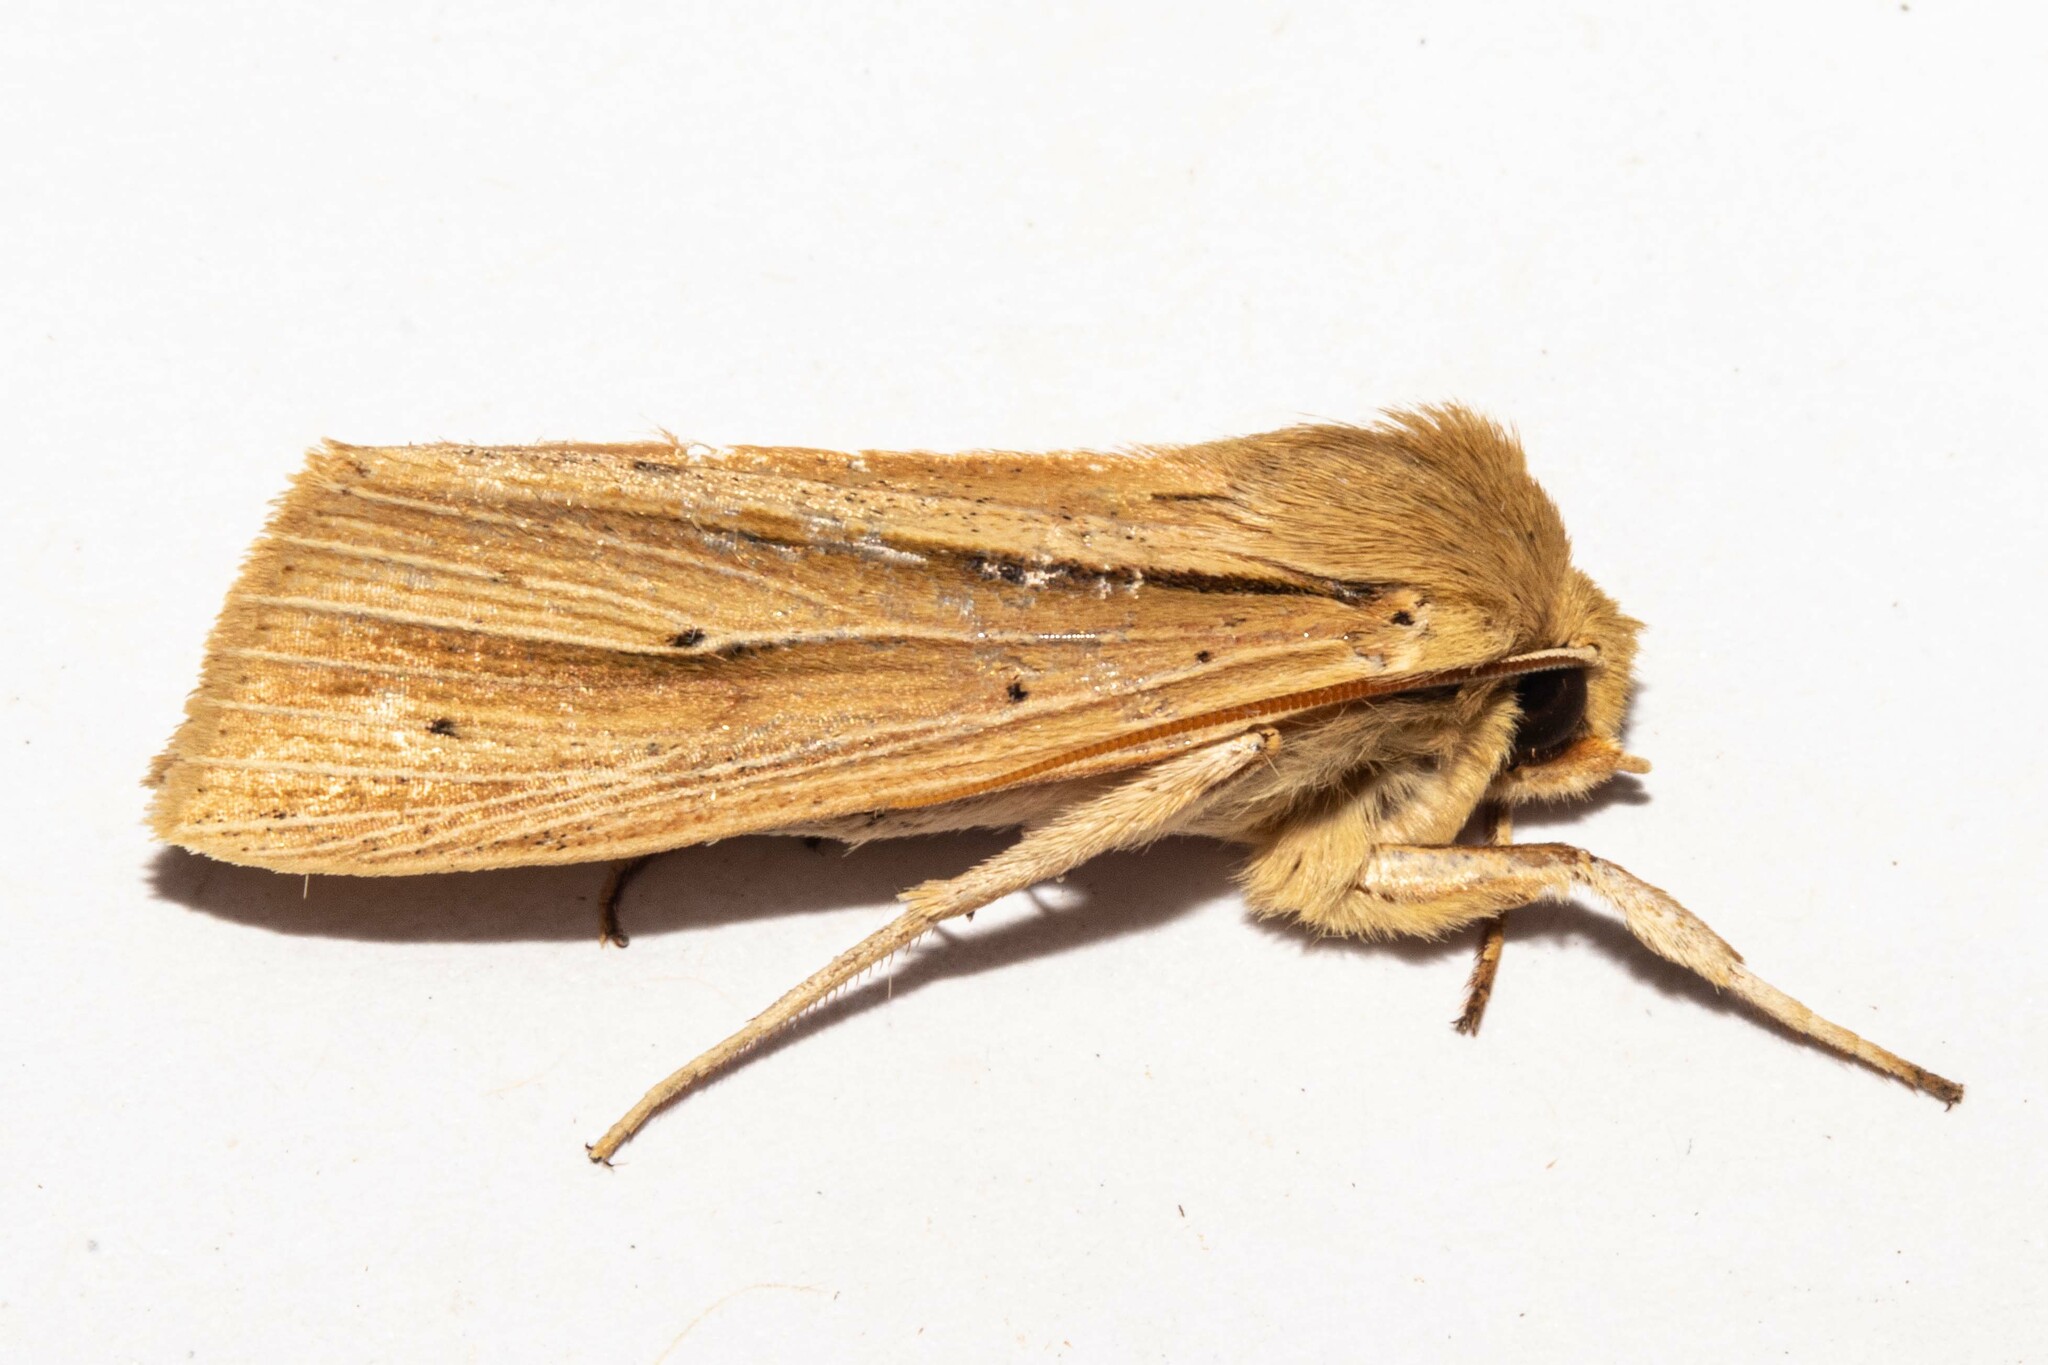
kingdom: Animalia
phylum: Arthropoda
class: Insecta
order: Lepidoptera
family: Noctuidae
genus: Ichneutica
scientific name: Ichneutica sulcana
